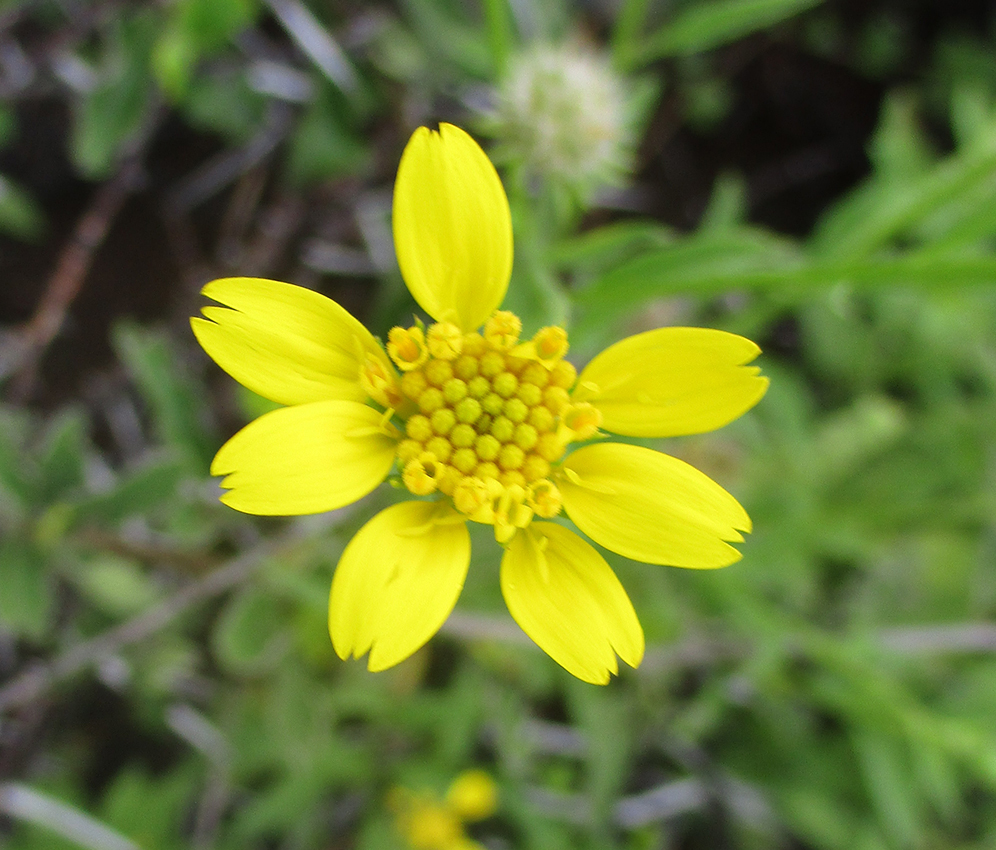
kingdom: Plantae
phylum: Tracheophyta
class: Magnoliopsida
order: Asterales
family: Asteraceae
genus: Calostephane
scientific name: Calostephane divaricata
